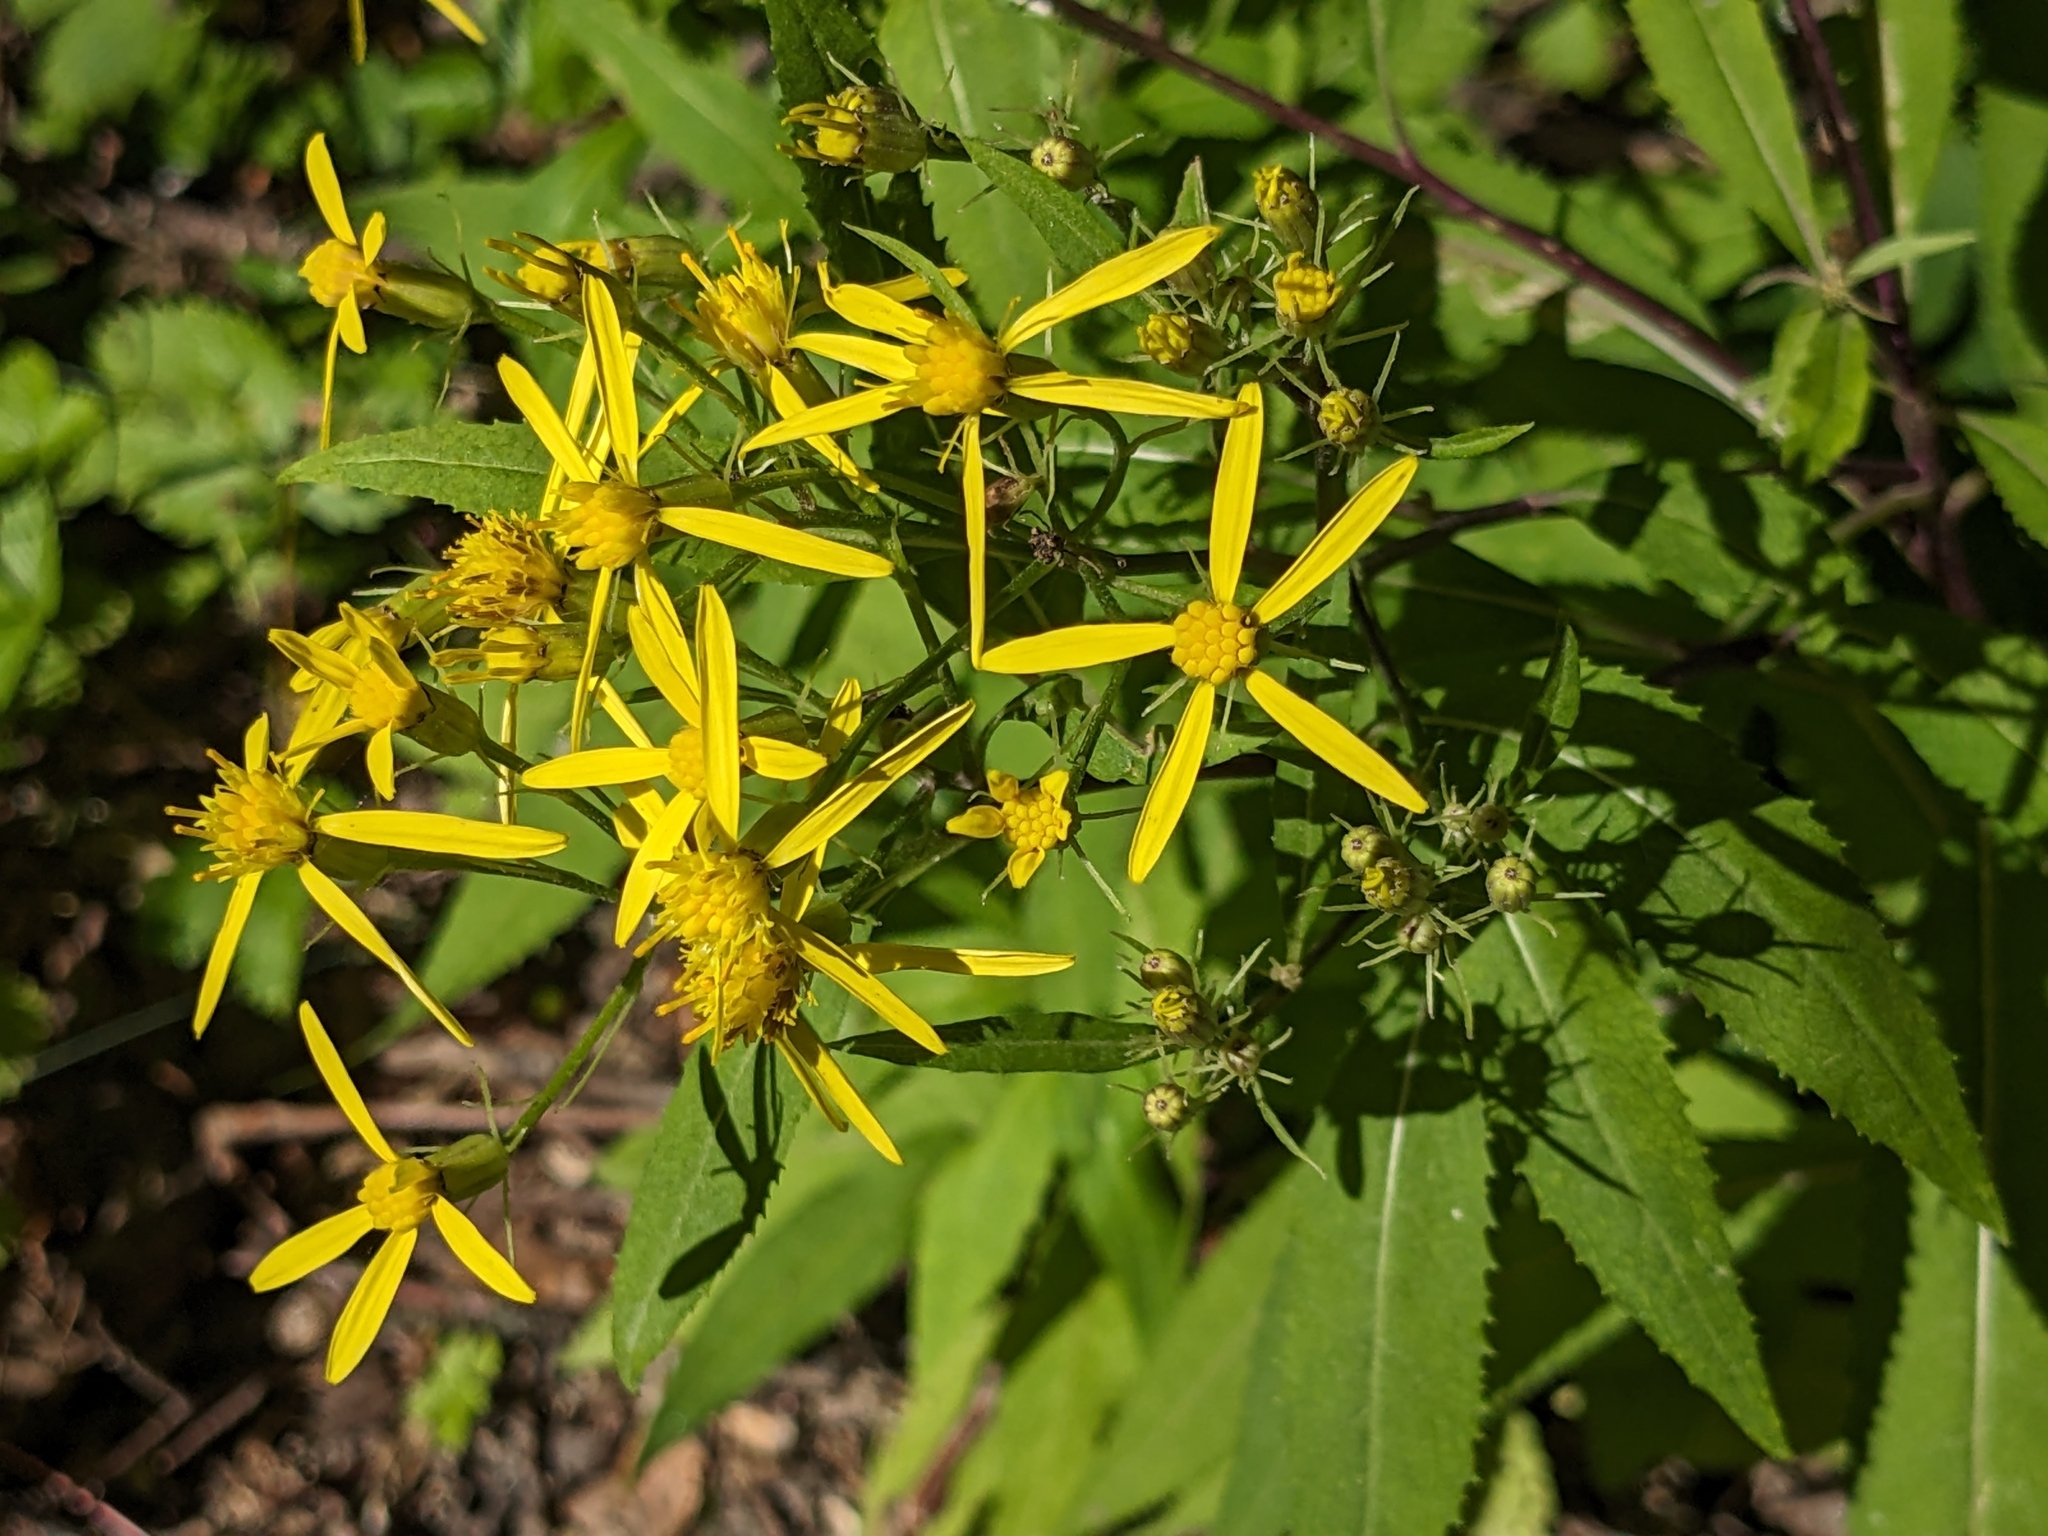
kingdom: Plantae
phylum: Tracheophyta
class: Magnoliopsida
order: Asterales
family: Asteraceae
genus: Senecio
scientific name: Senecio ovatus
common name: Wood ragwort
